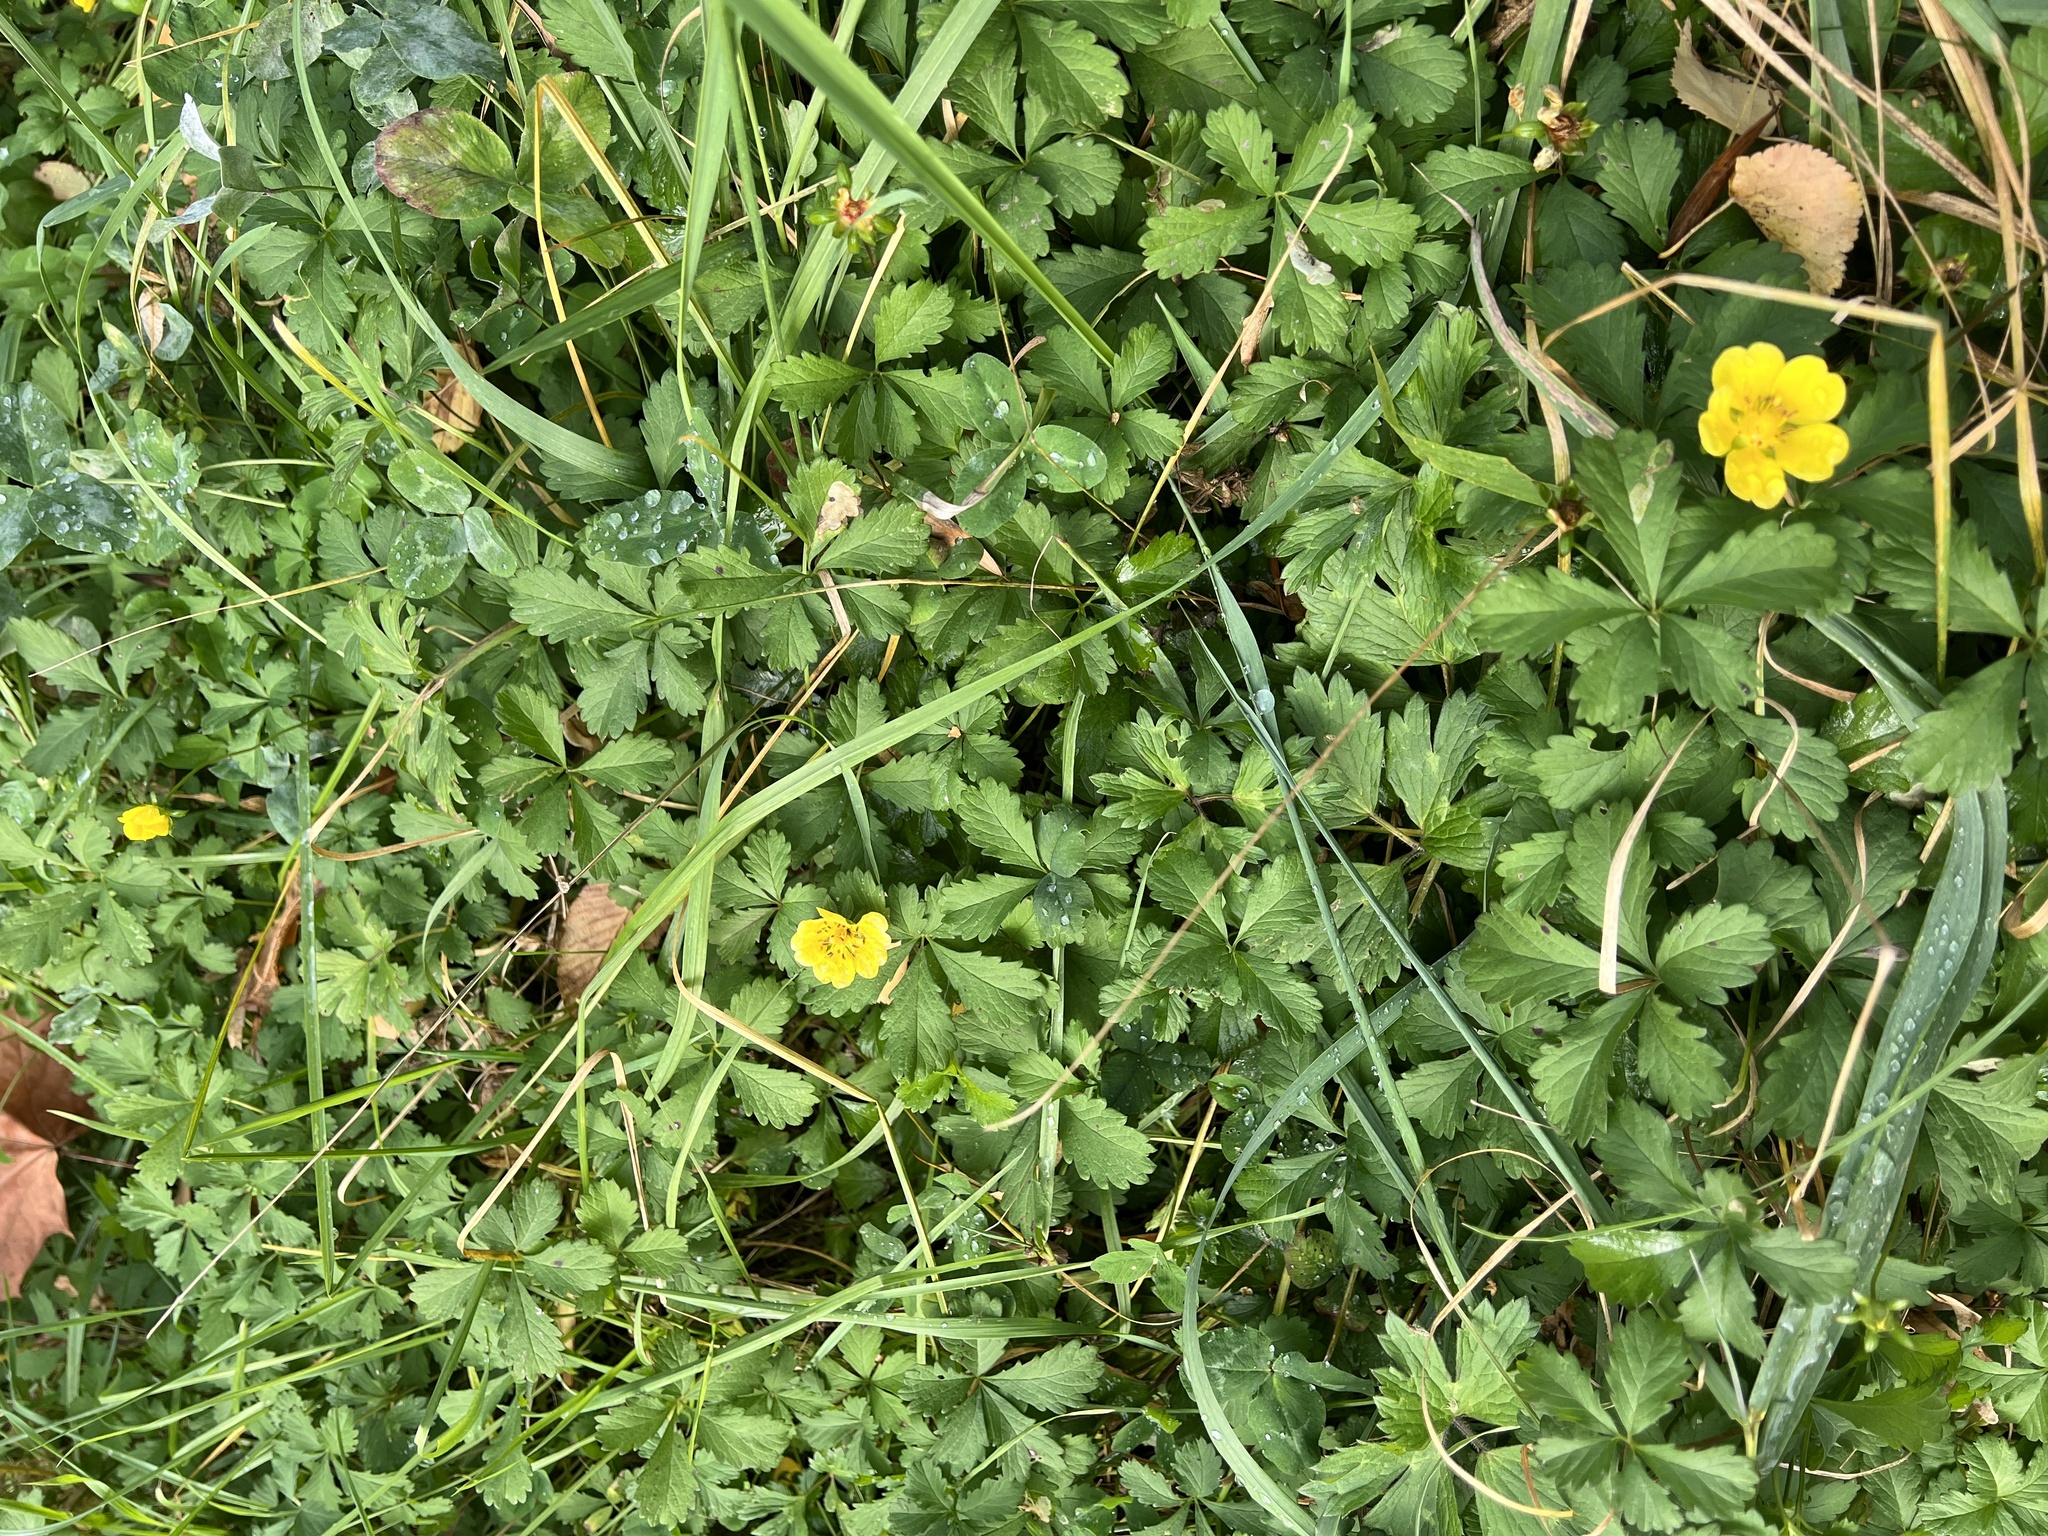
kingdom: Plantae
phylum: Tracheophyta
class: Magnoliopsida
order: Rosales
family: Rosaceae
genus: Potentilla
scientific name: Potentilla reptans
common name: Creeping cinquefoil
